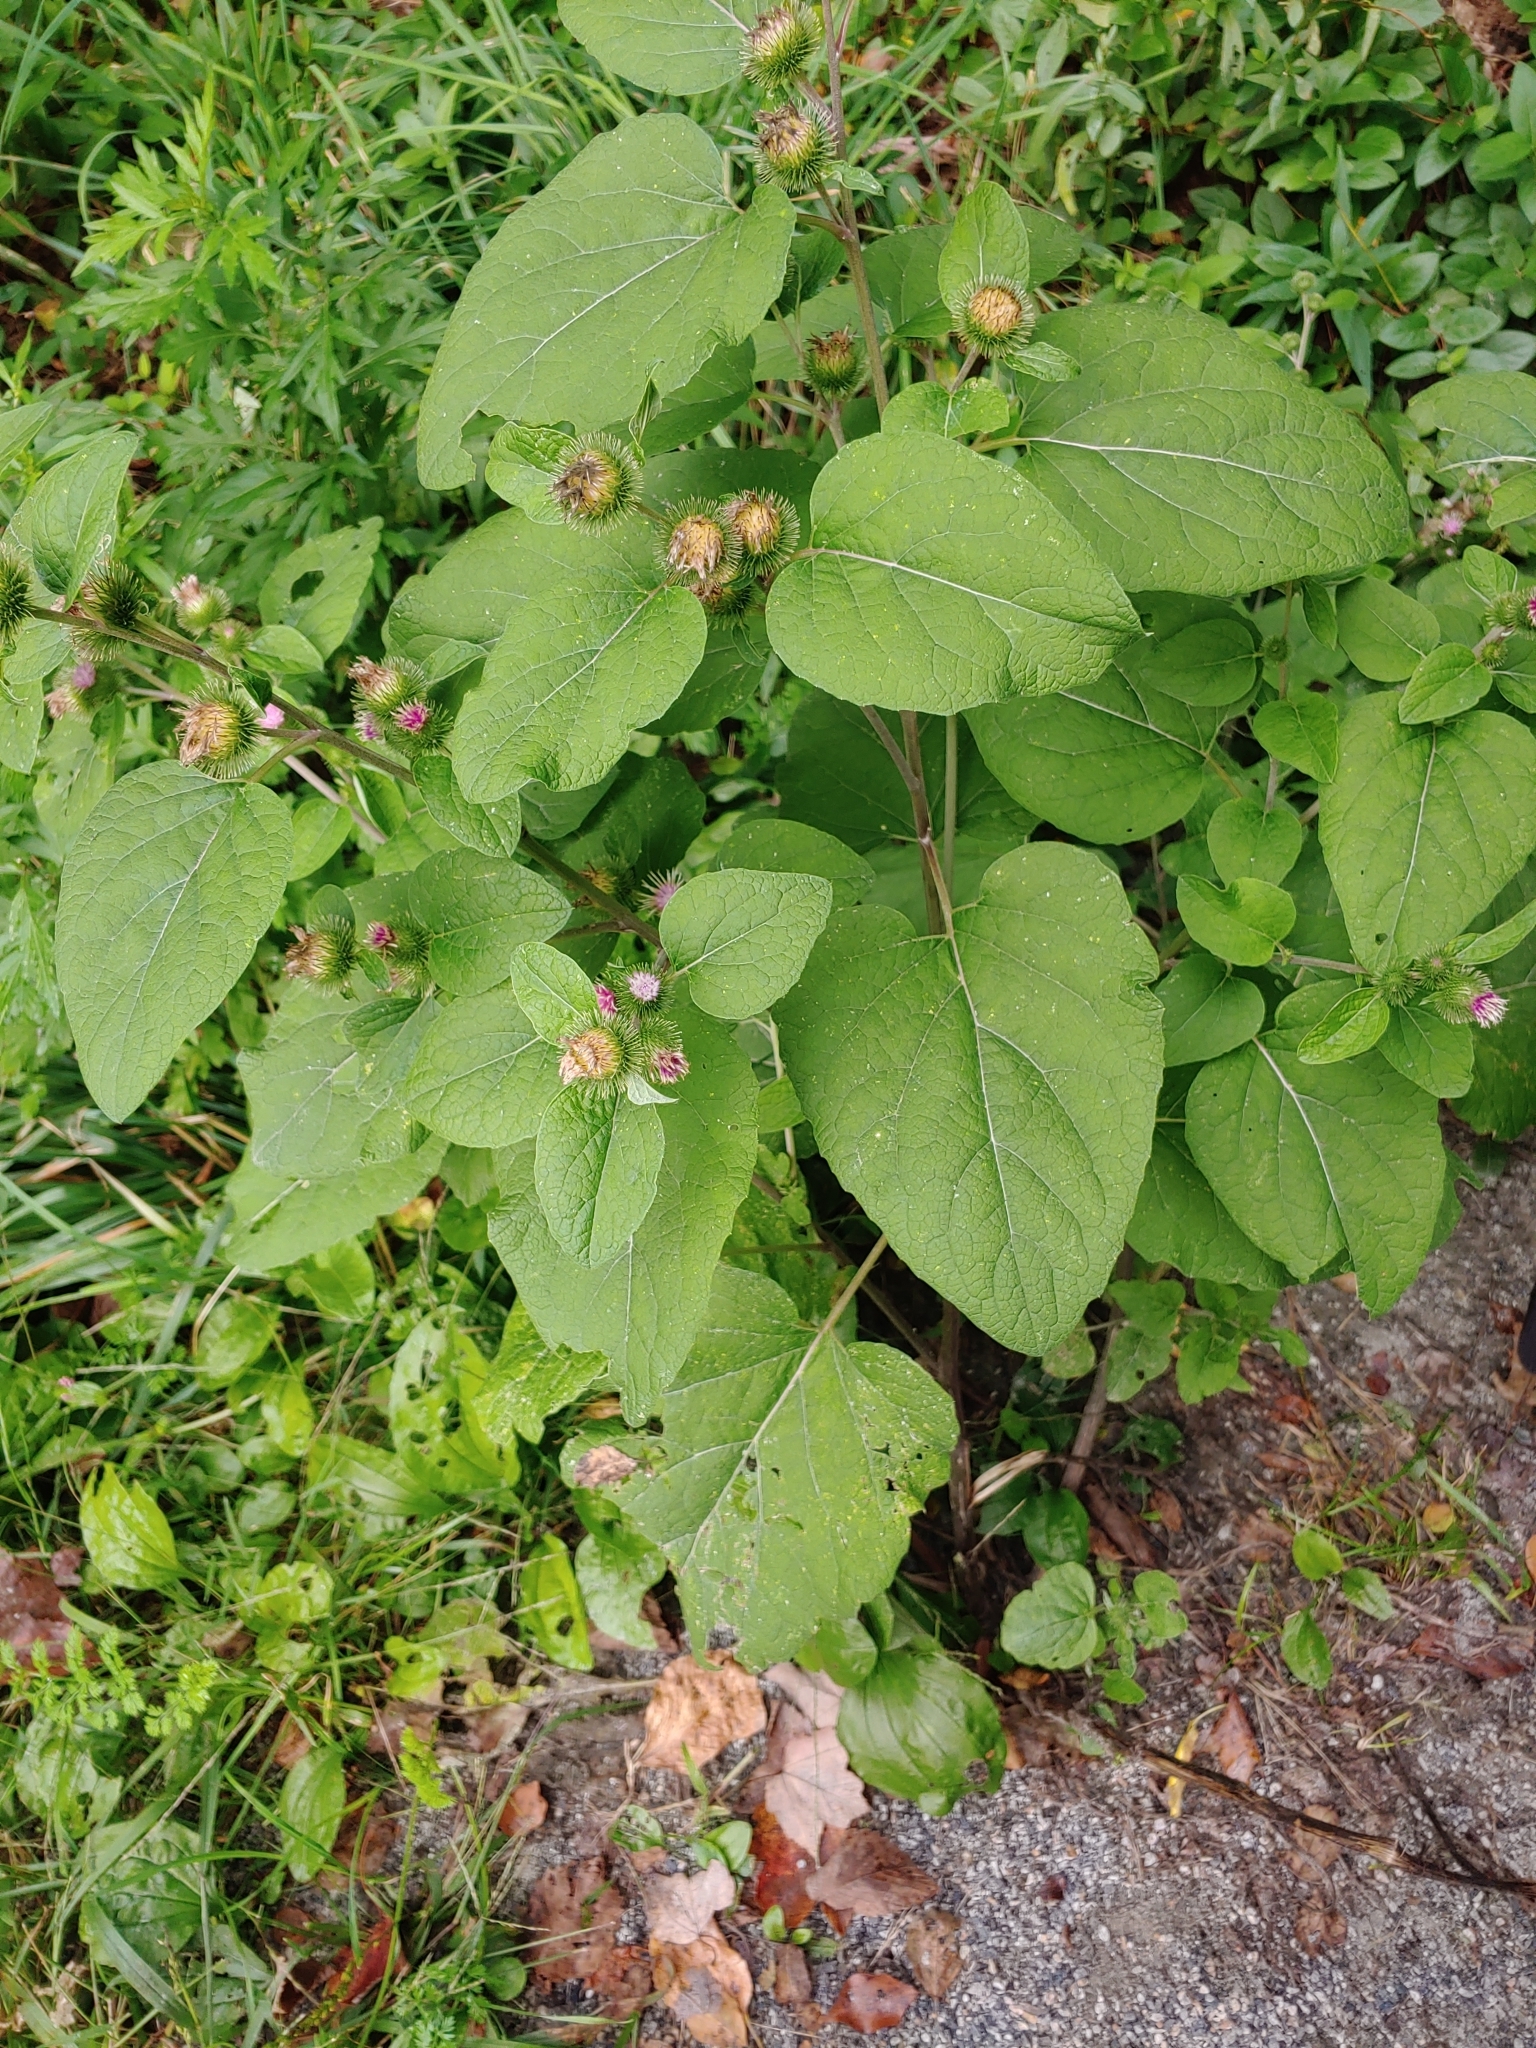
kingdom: Plantae
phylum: Tracheophyta
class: Magnoliopsida
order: Asterales
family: Asteraceae
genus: Arctium
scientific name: Arctium minus
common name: Lesser burdock
